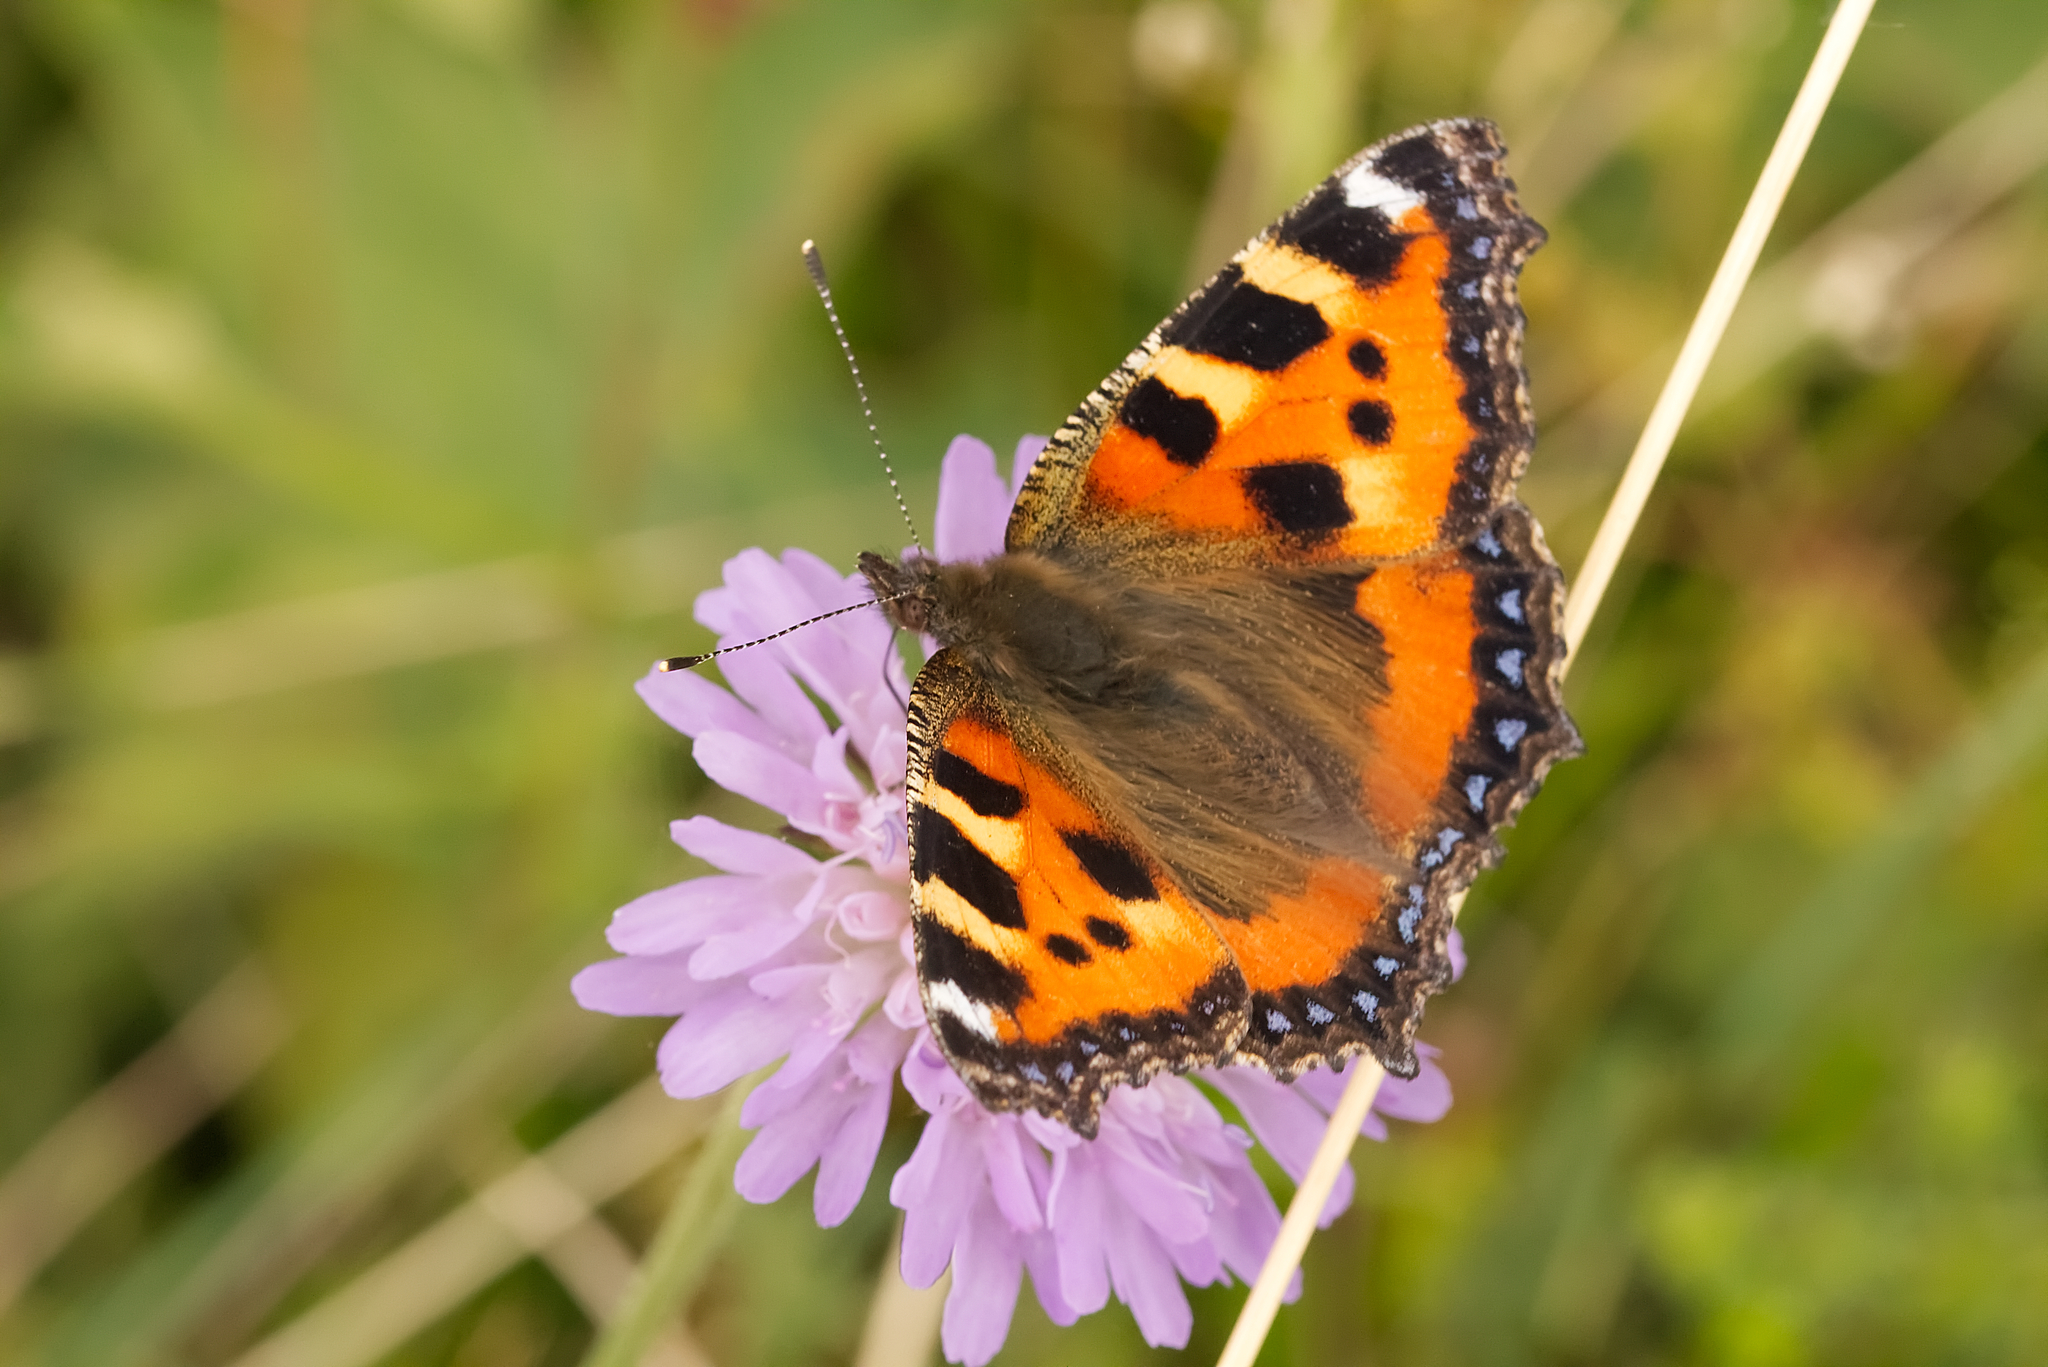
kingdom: Animalia
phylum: Arthropoda
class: Insecta
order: Lepidoptera
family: Nymphalidae
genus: Aglais
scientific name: Aglais urticae
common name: Small tortoiseshell
